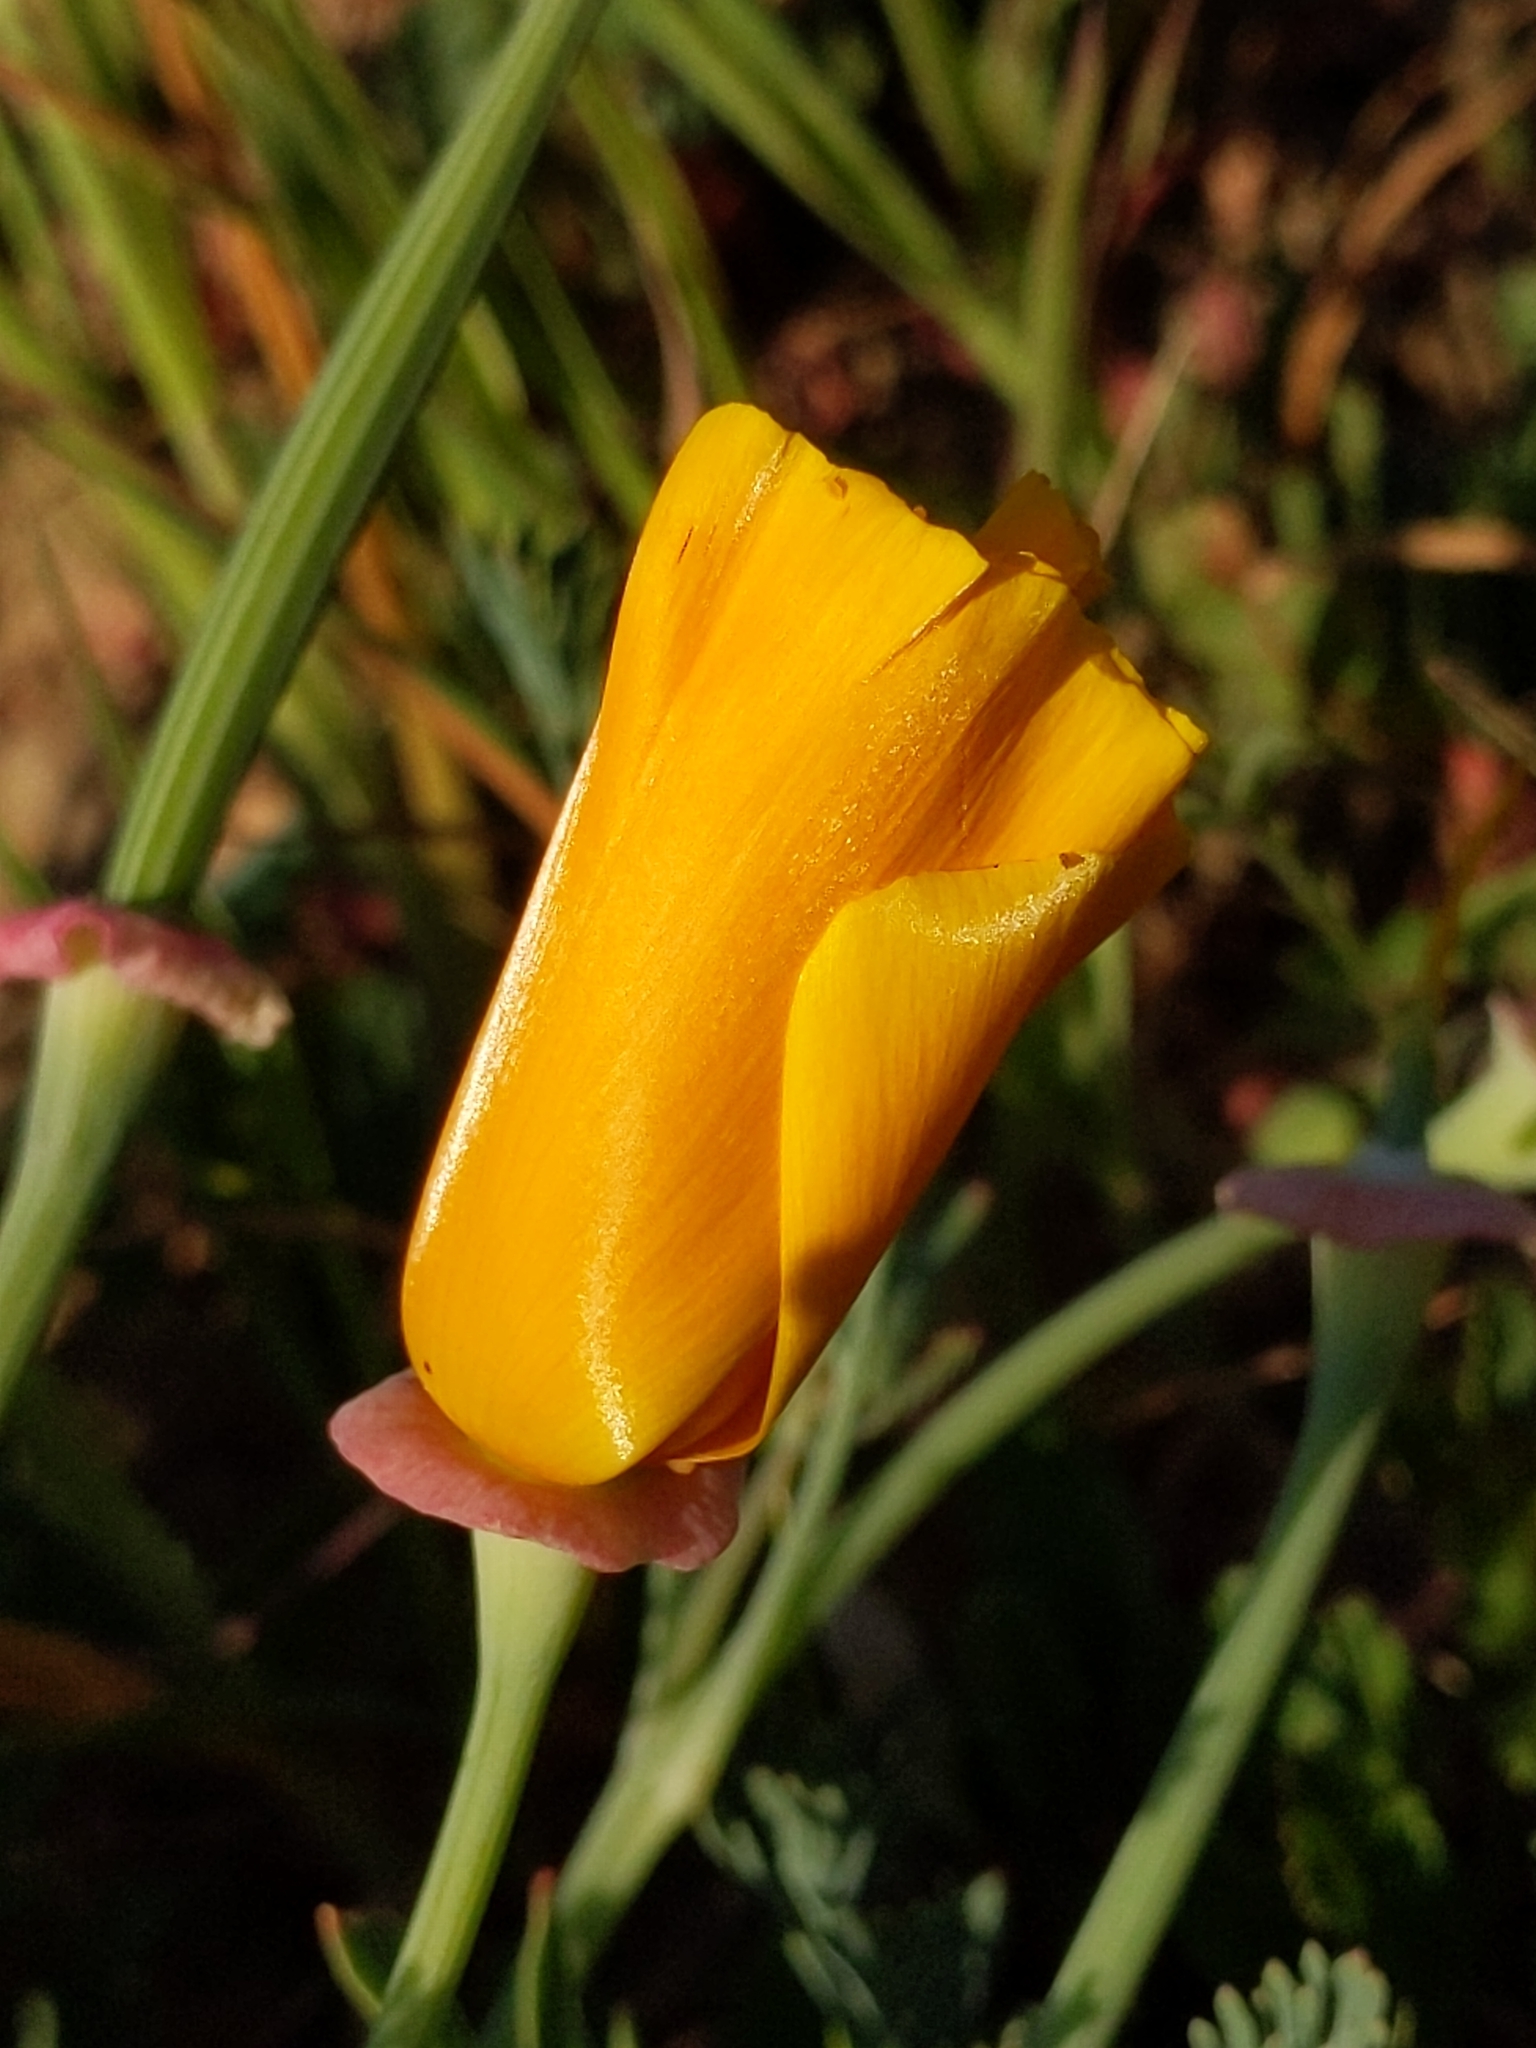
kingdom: Plantae
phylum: Tracheophyta
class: Magnoliopsida
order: Ranunculales
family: Papaveraceae
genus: Eschscholzia
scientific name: Eschscholzia californica
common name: California poppy
